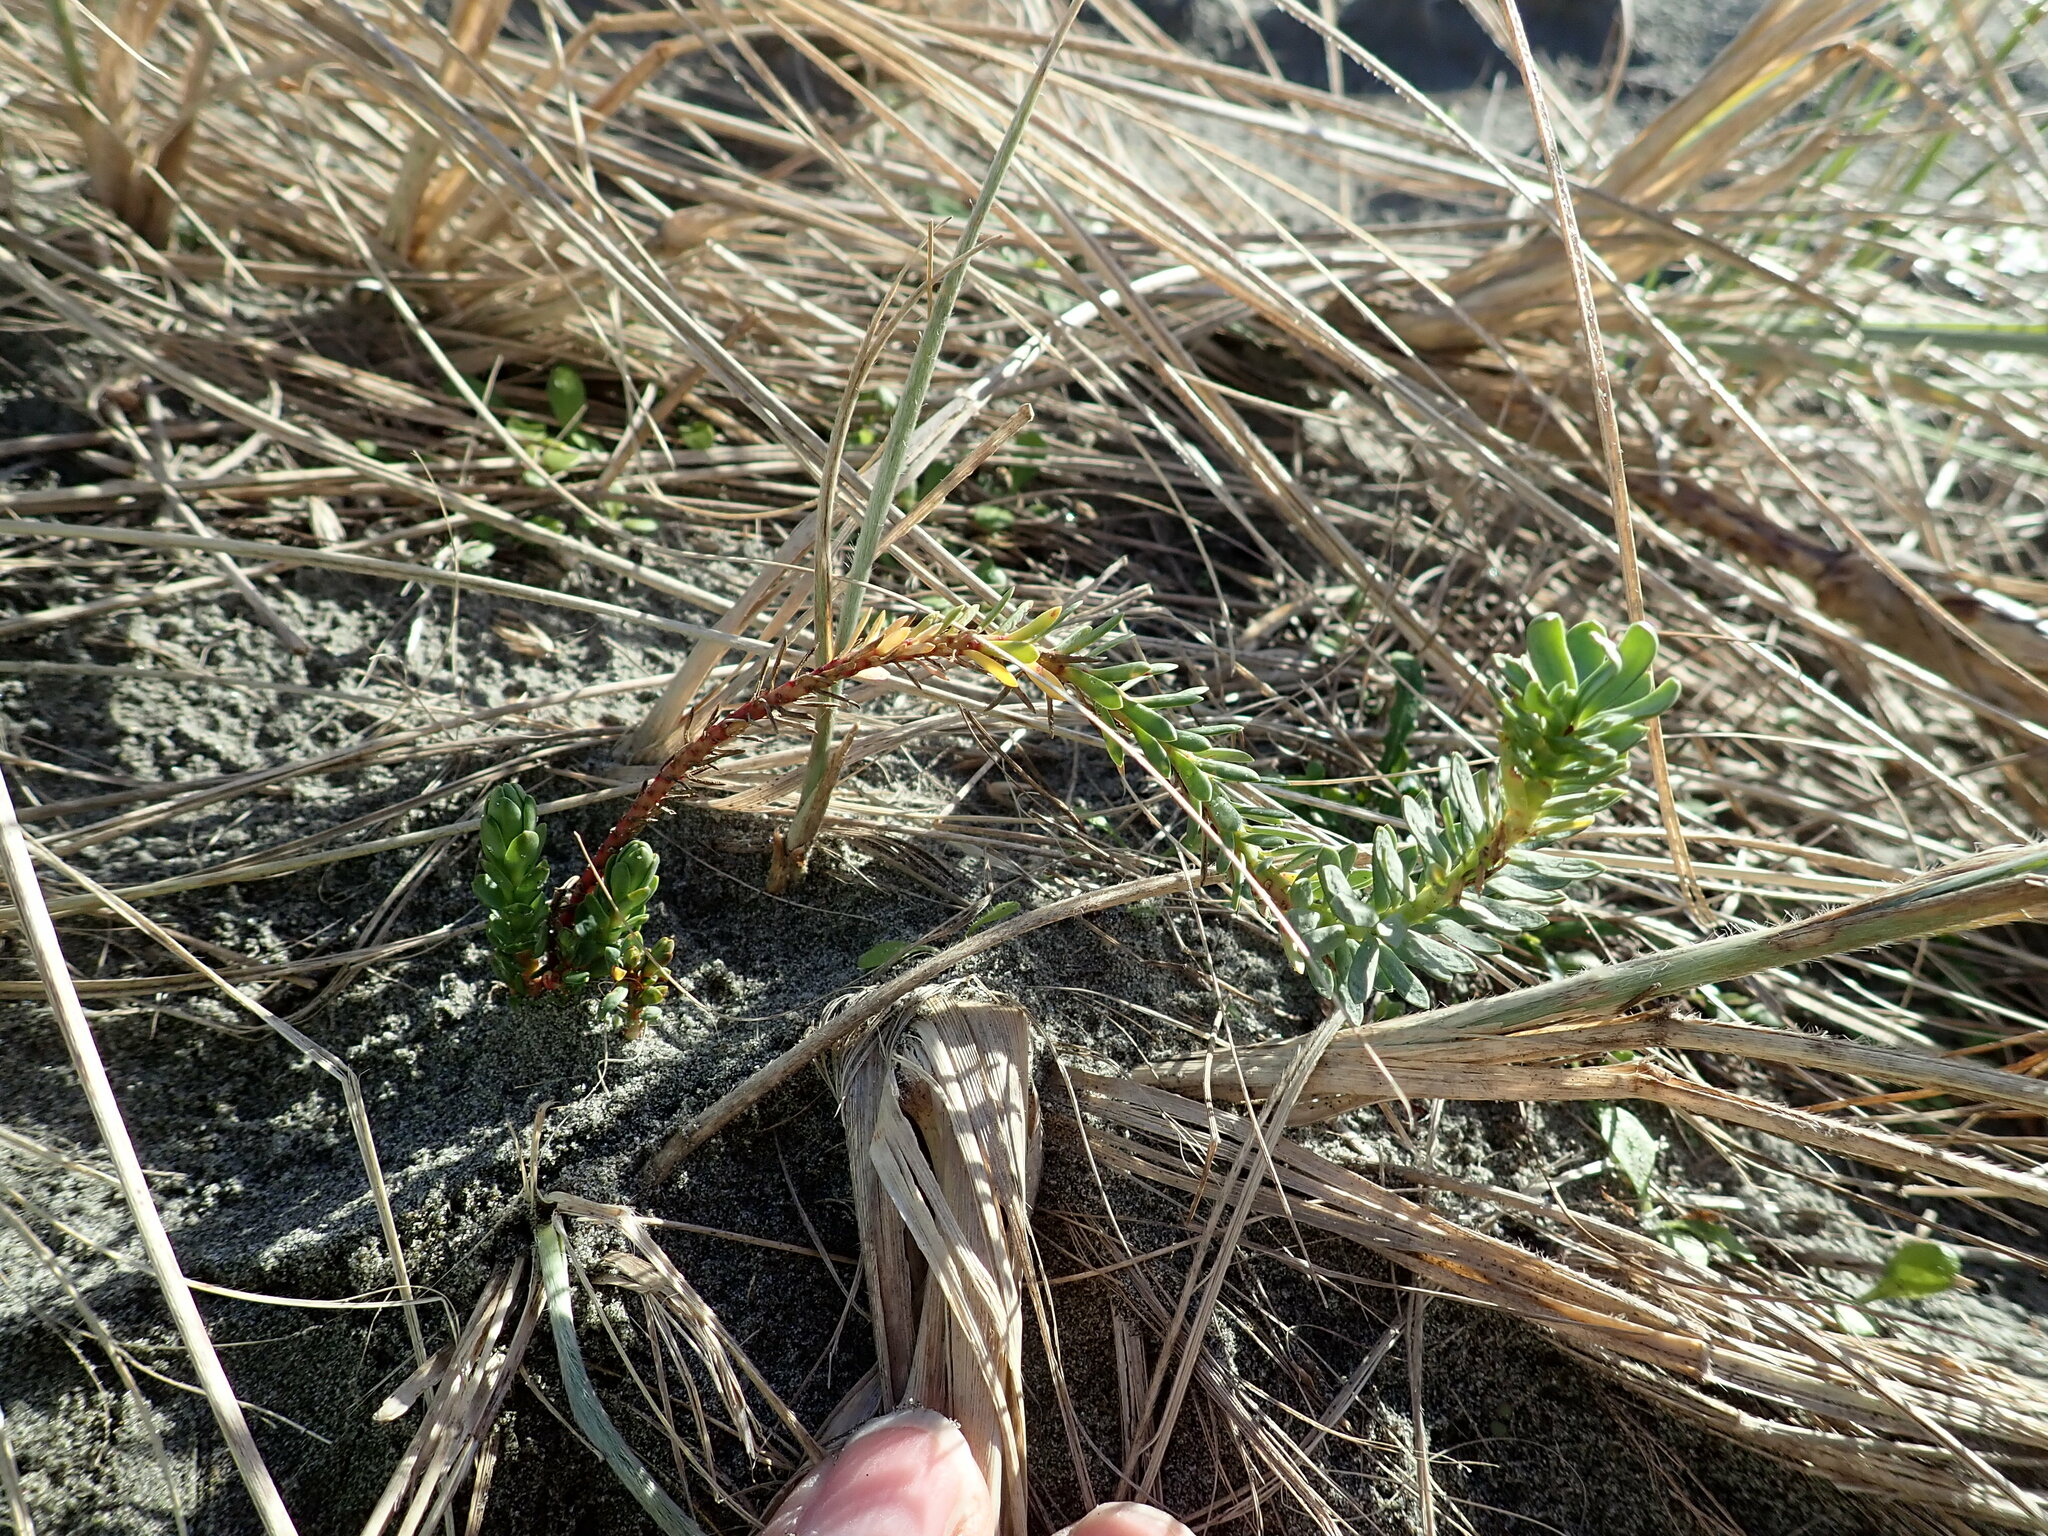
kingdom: Plantae
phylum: Tracheophyta
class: Magnoliopsida
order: Malpighiales
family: Euphorbiaceae
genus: Euphorbia
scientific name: Euphorbia paralias
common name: Sea spurge
